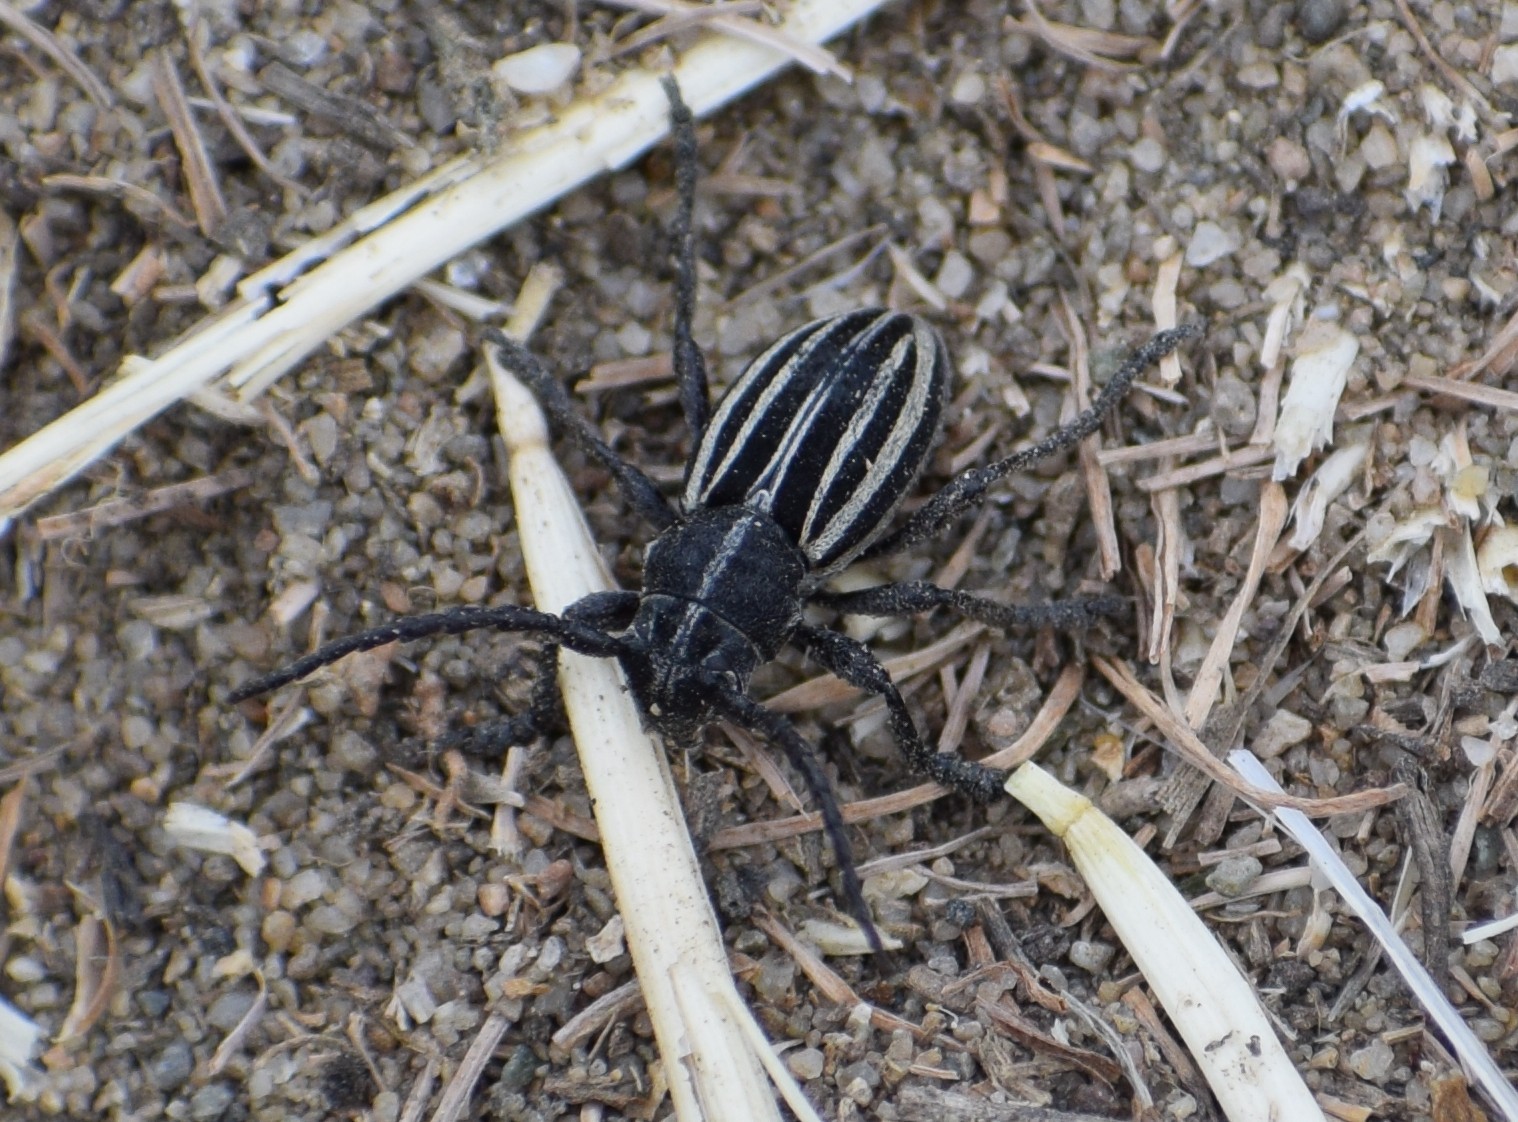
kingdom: Animalia
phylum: Arthropoda
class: Insecta
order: Coleoptera
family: Cerambycidae
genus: Dorcadion
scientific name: Dorcadion scopolii
